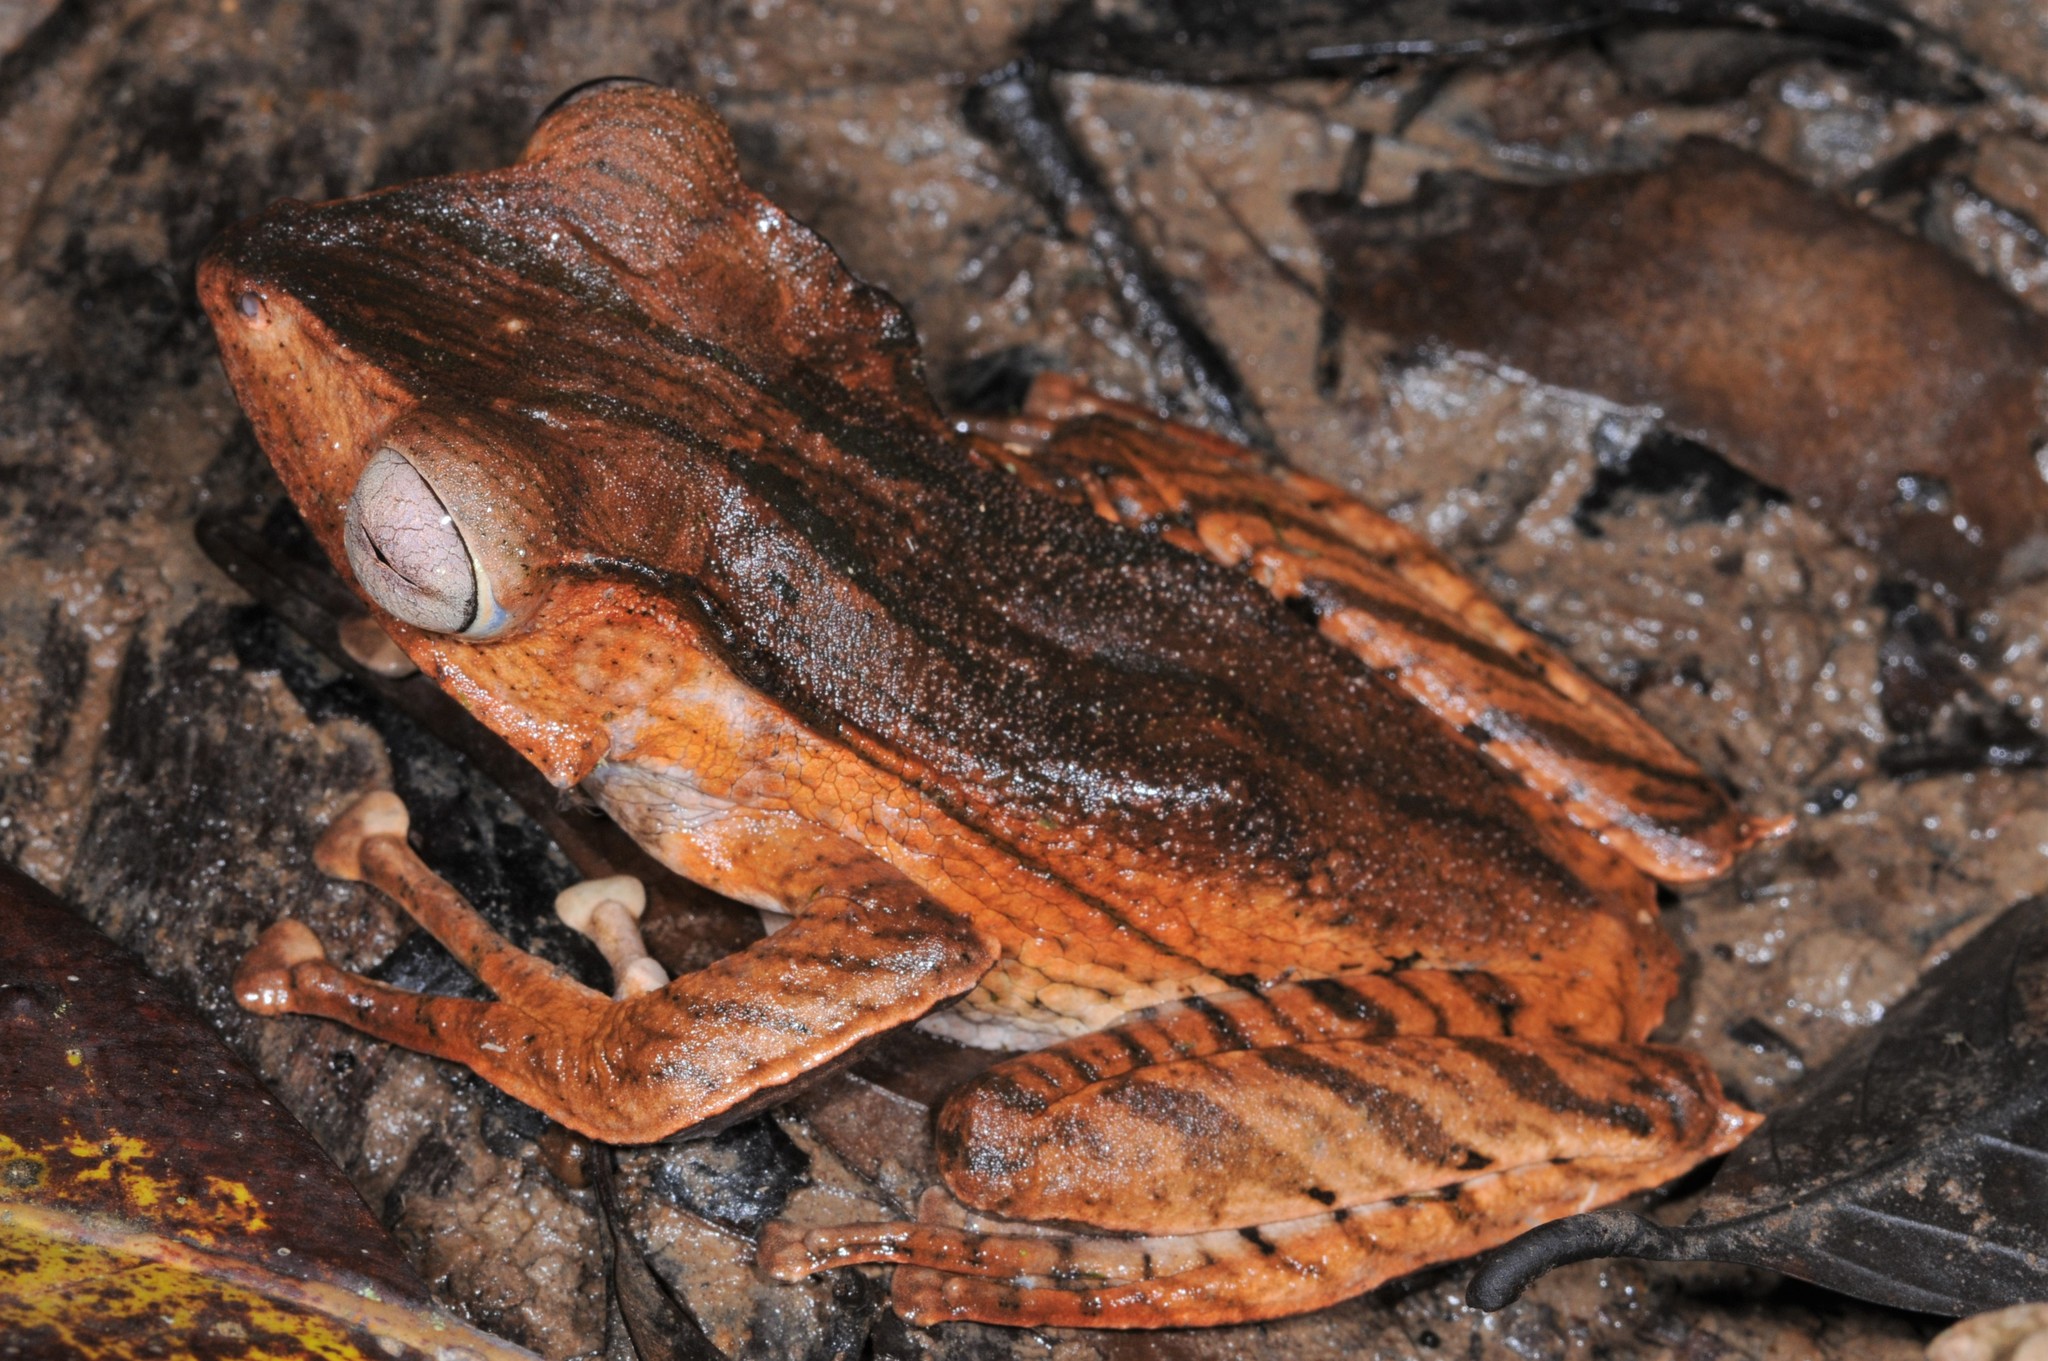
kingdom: Animalia
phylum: Chordata
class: Amphibia
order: Anura
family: Rhacophoridae
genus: Polypedates
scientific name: Polypedates otilophus
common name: File-eared tree frog
